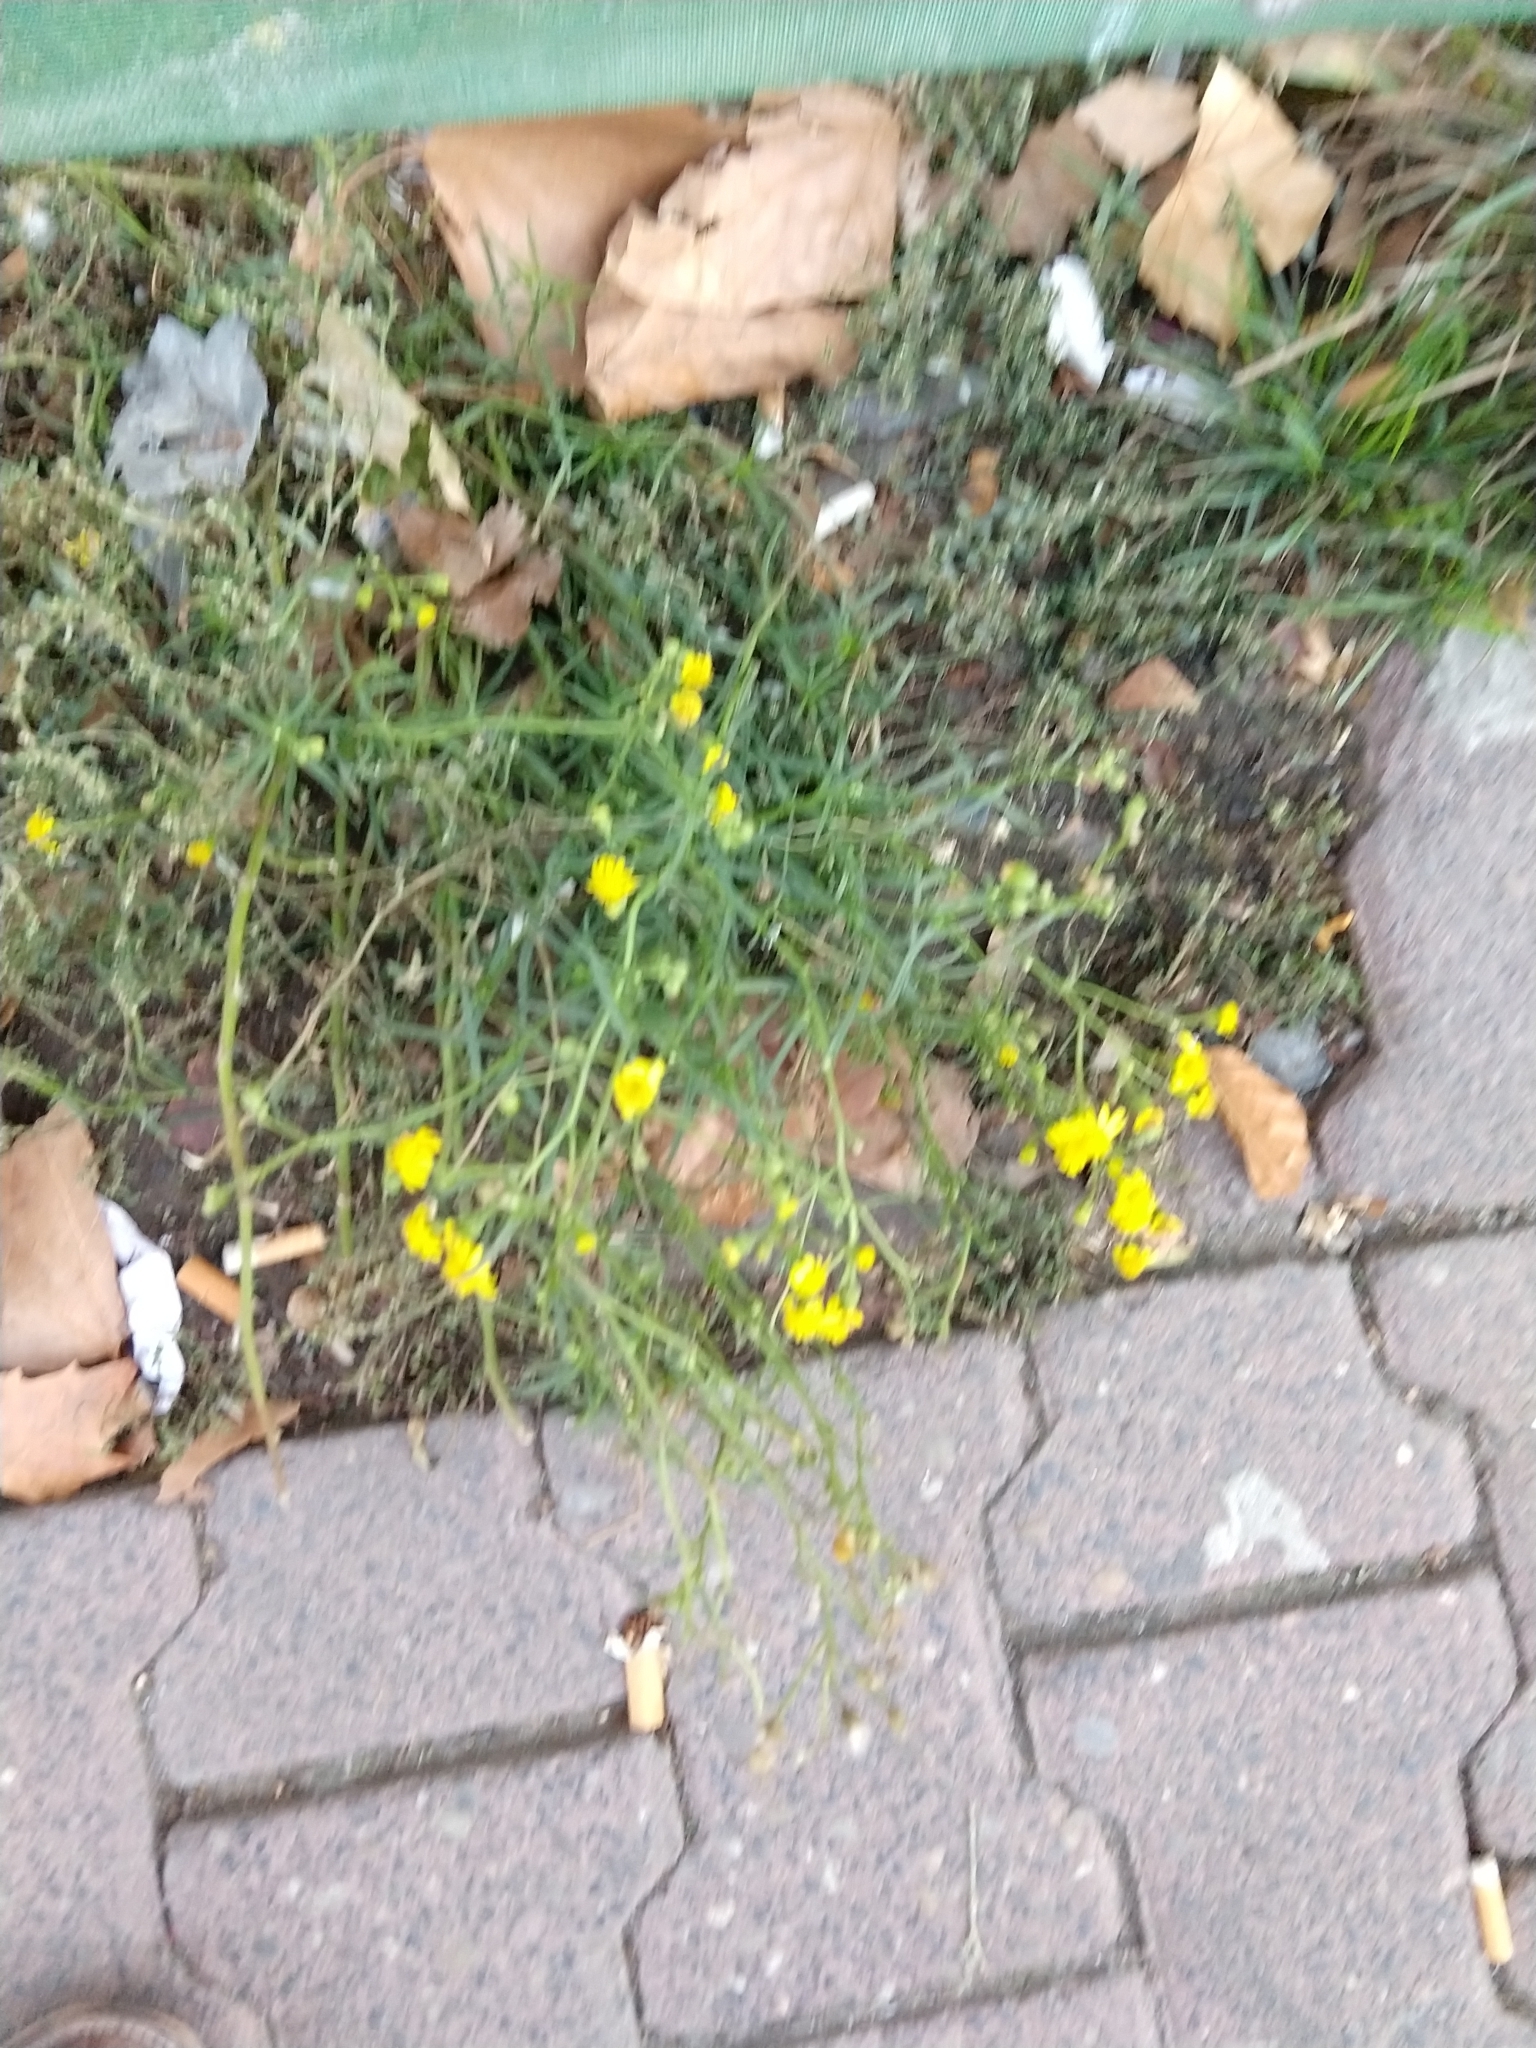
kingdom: Plantae
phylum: Tracheophyta
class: Magnoliopsida
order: Asterales
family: Asteraceae
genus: Senecio
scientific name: Senecio inaequidens
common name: Narrow-leaved ragwort
